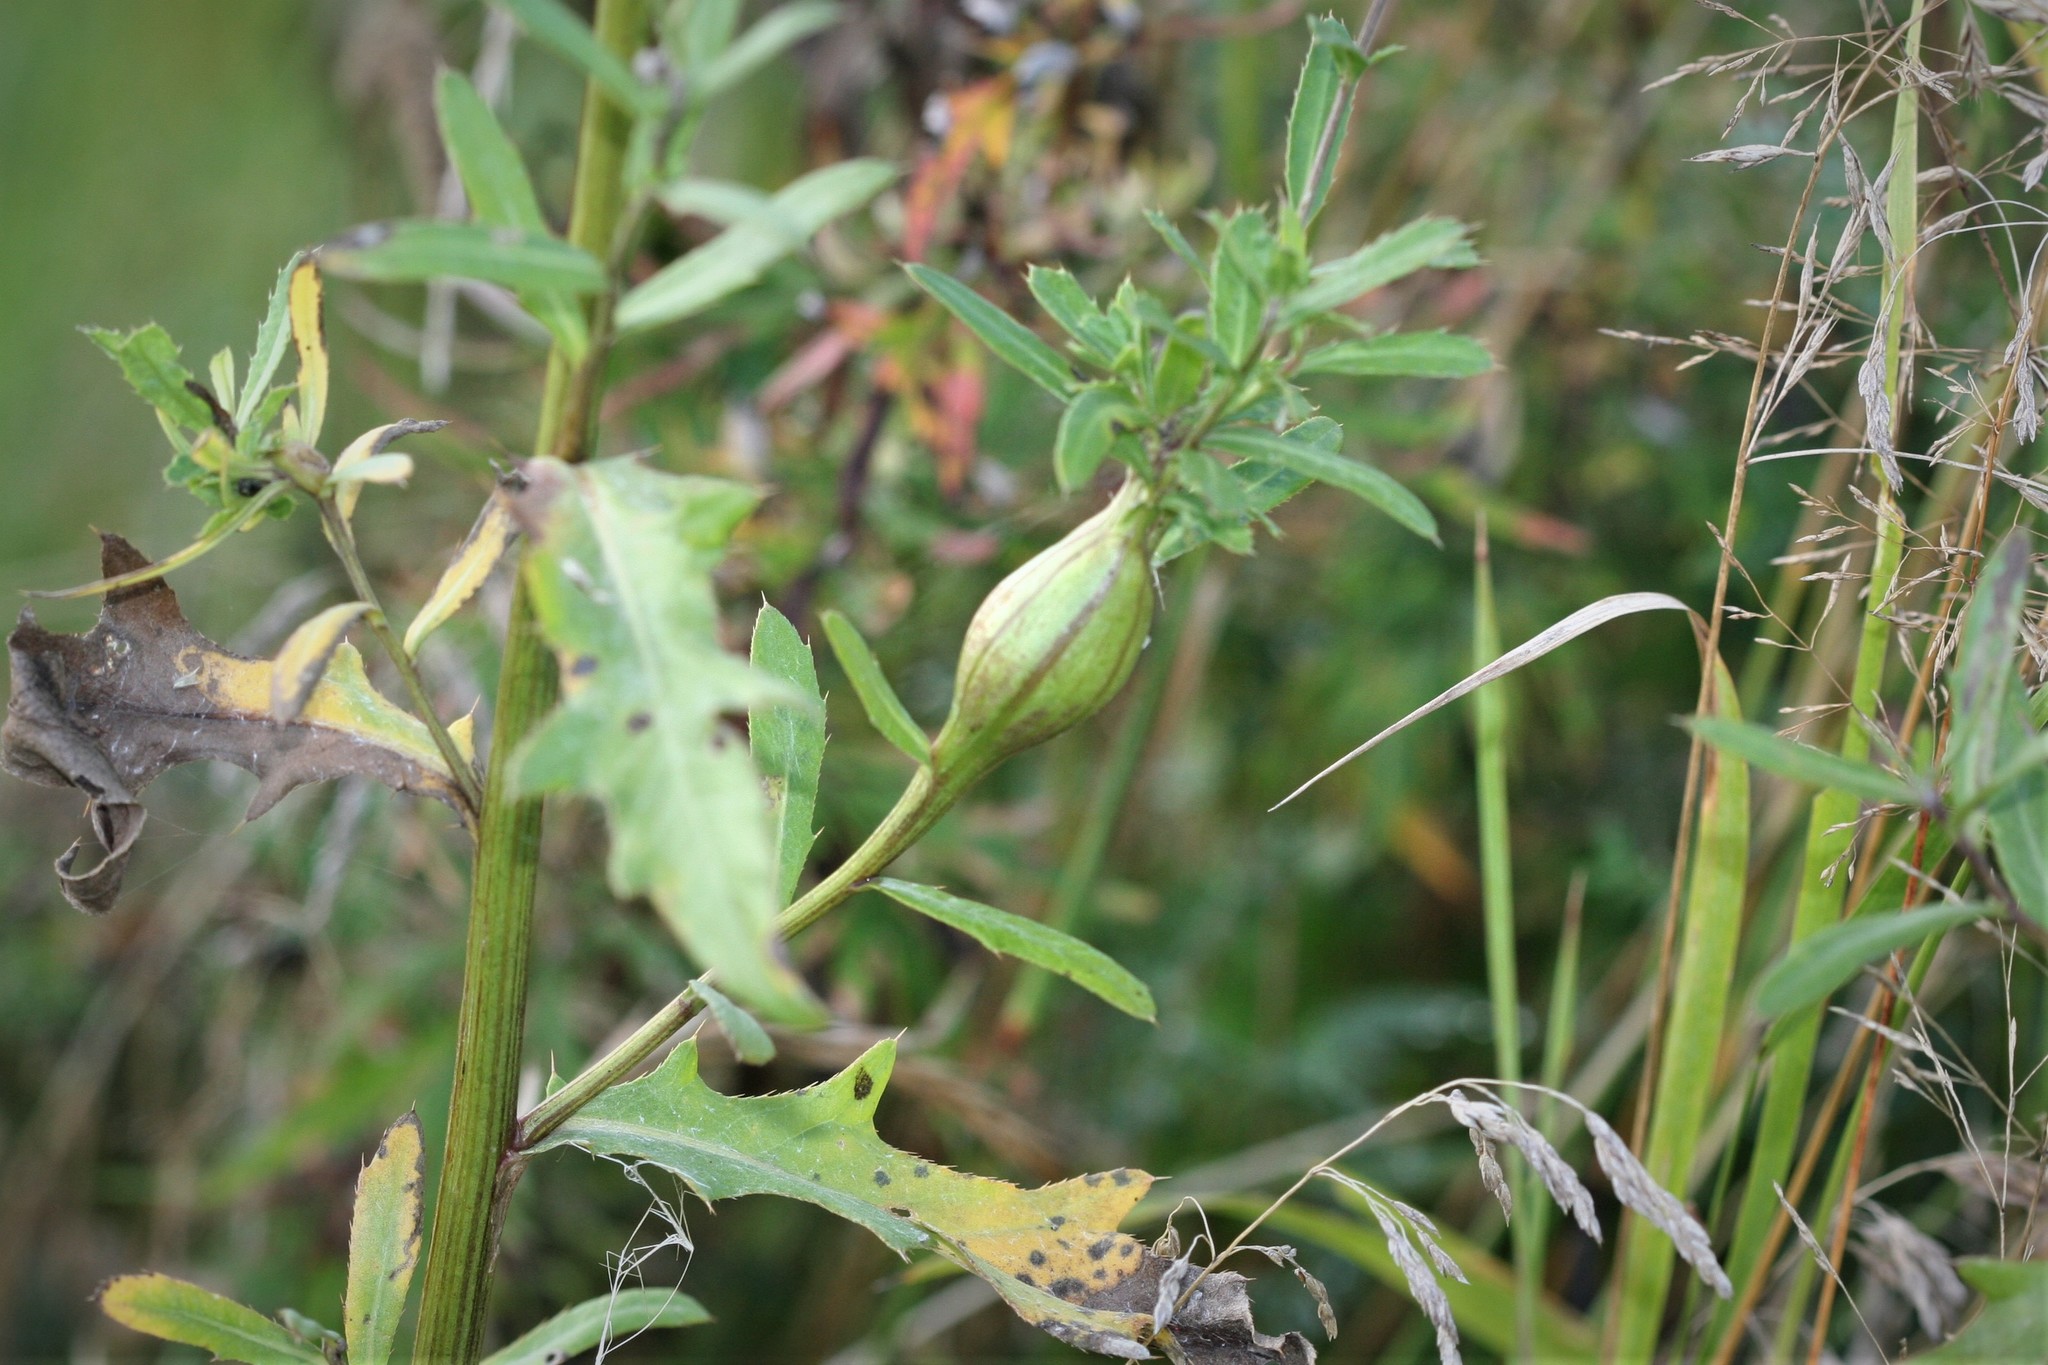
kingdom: Animalia
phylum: Arthropoda
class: Insecta
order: Diptera
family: Tephritidae
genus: Urophora
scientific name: Urophora cardui
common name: Fruit fly
